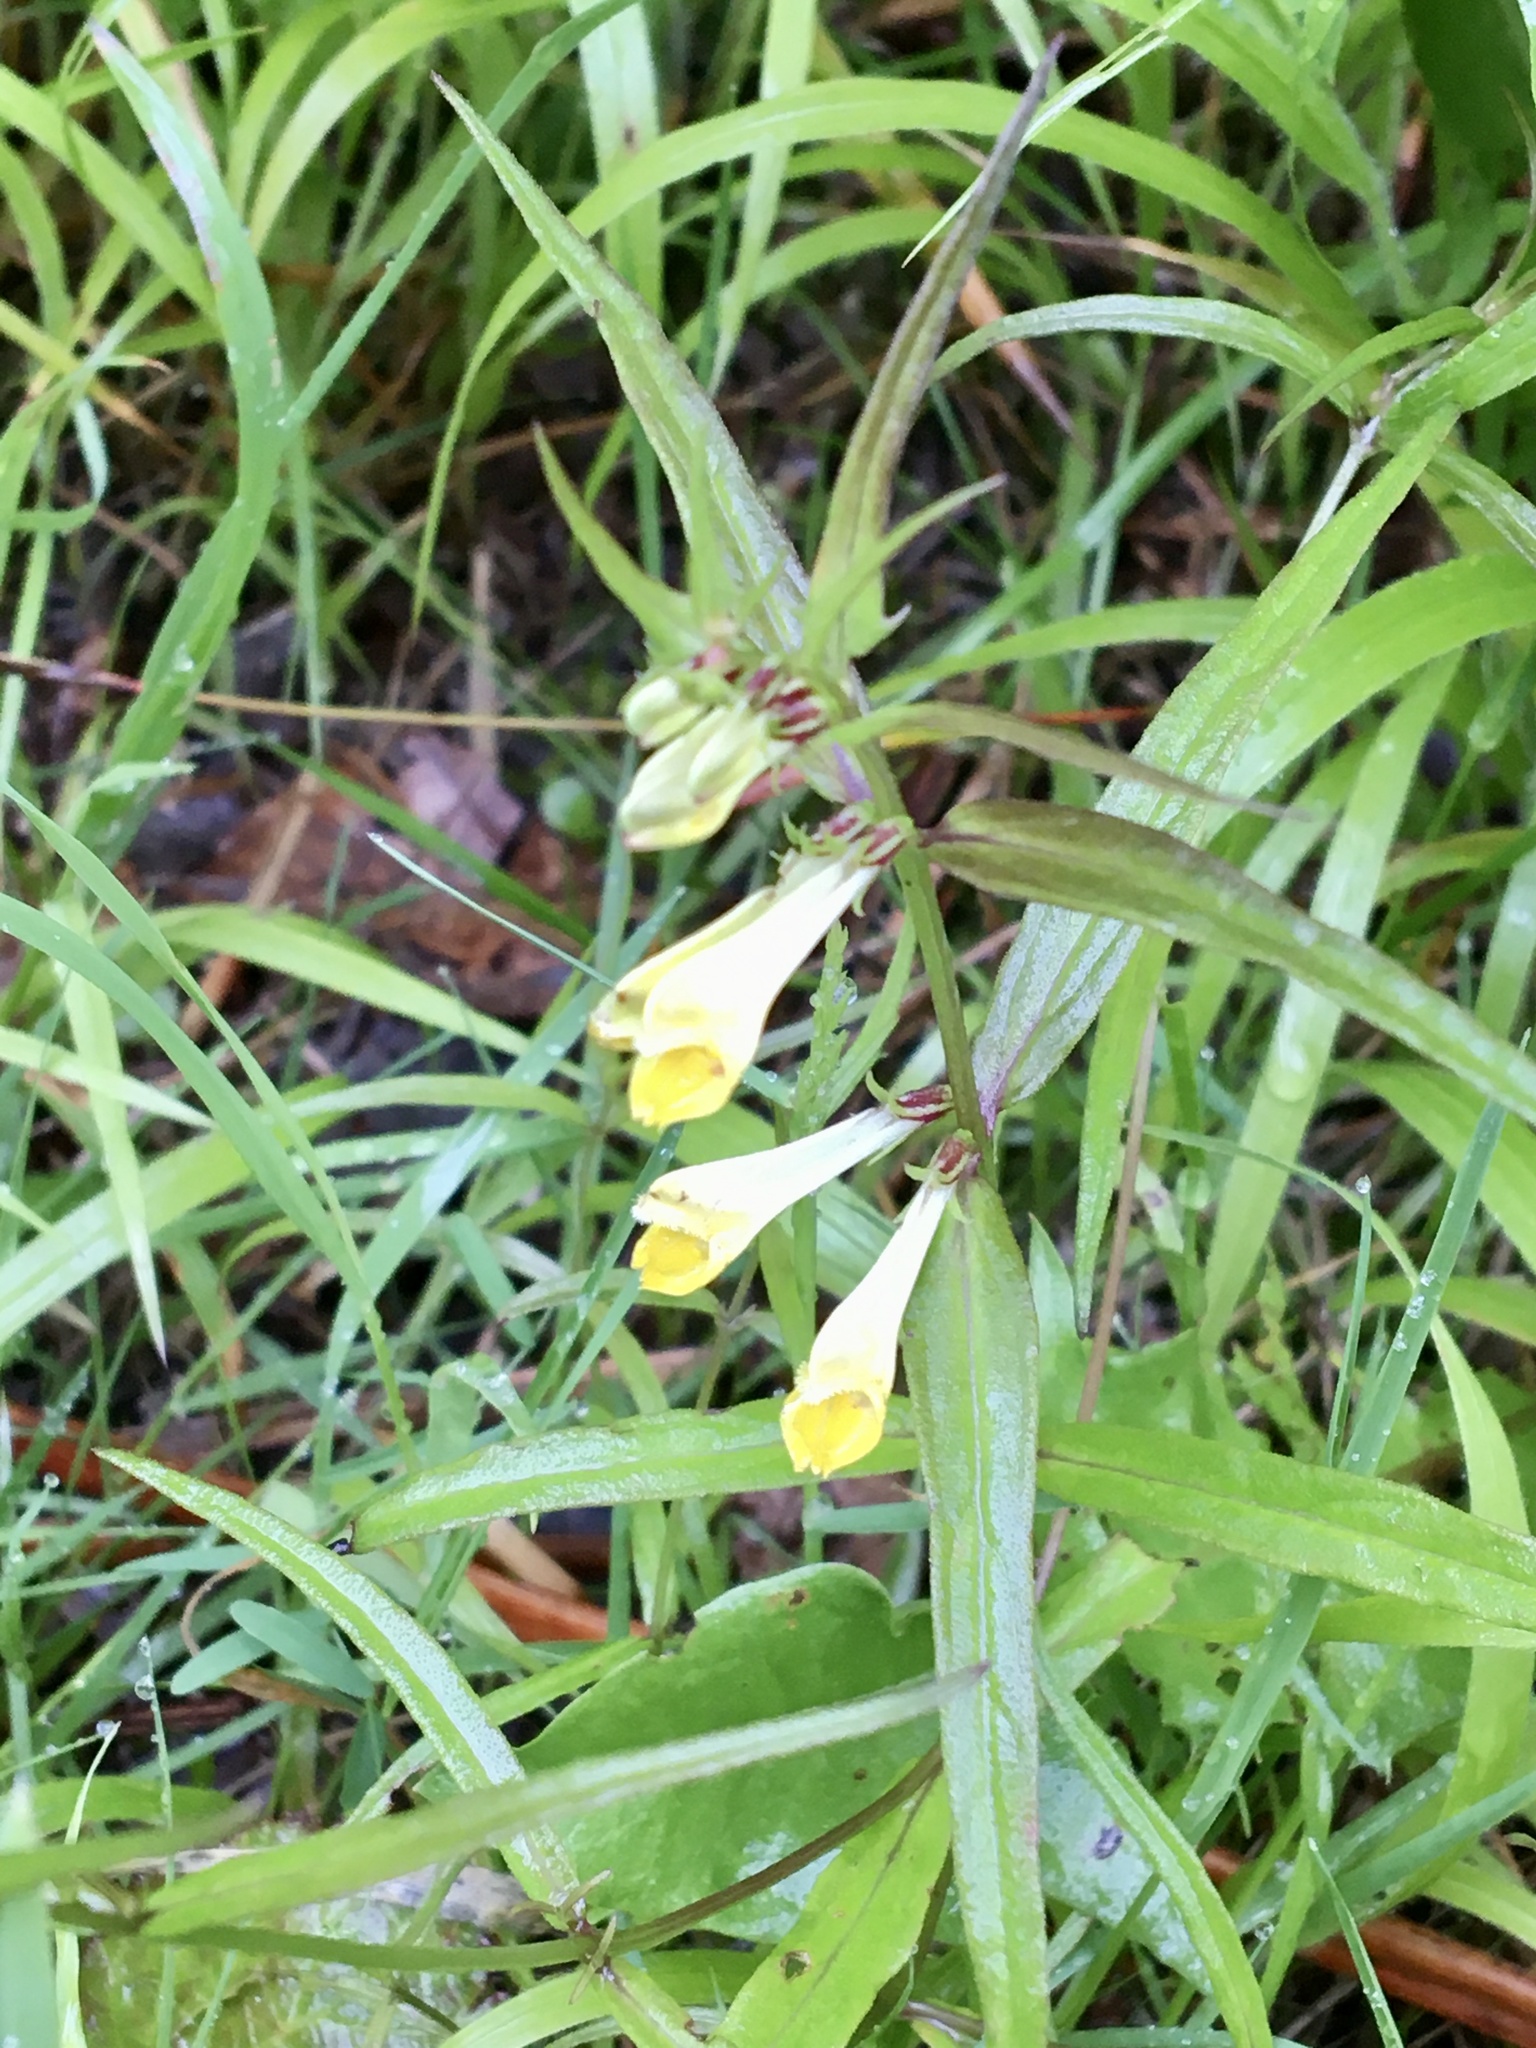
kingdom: Plantae
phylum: Tracheophyta
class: Magnoliopsida
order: Lamiales
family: Orobanchaceae
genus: Melampyrum
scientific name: Melampyrum pratense
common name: Common cow-wheat
